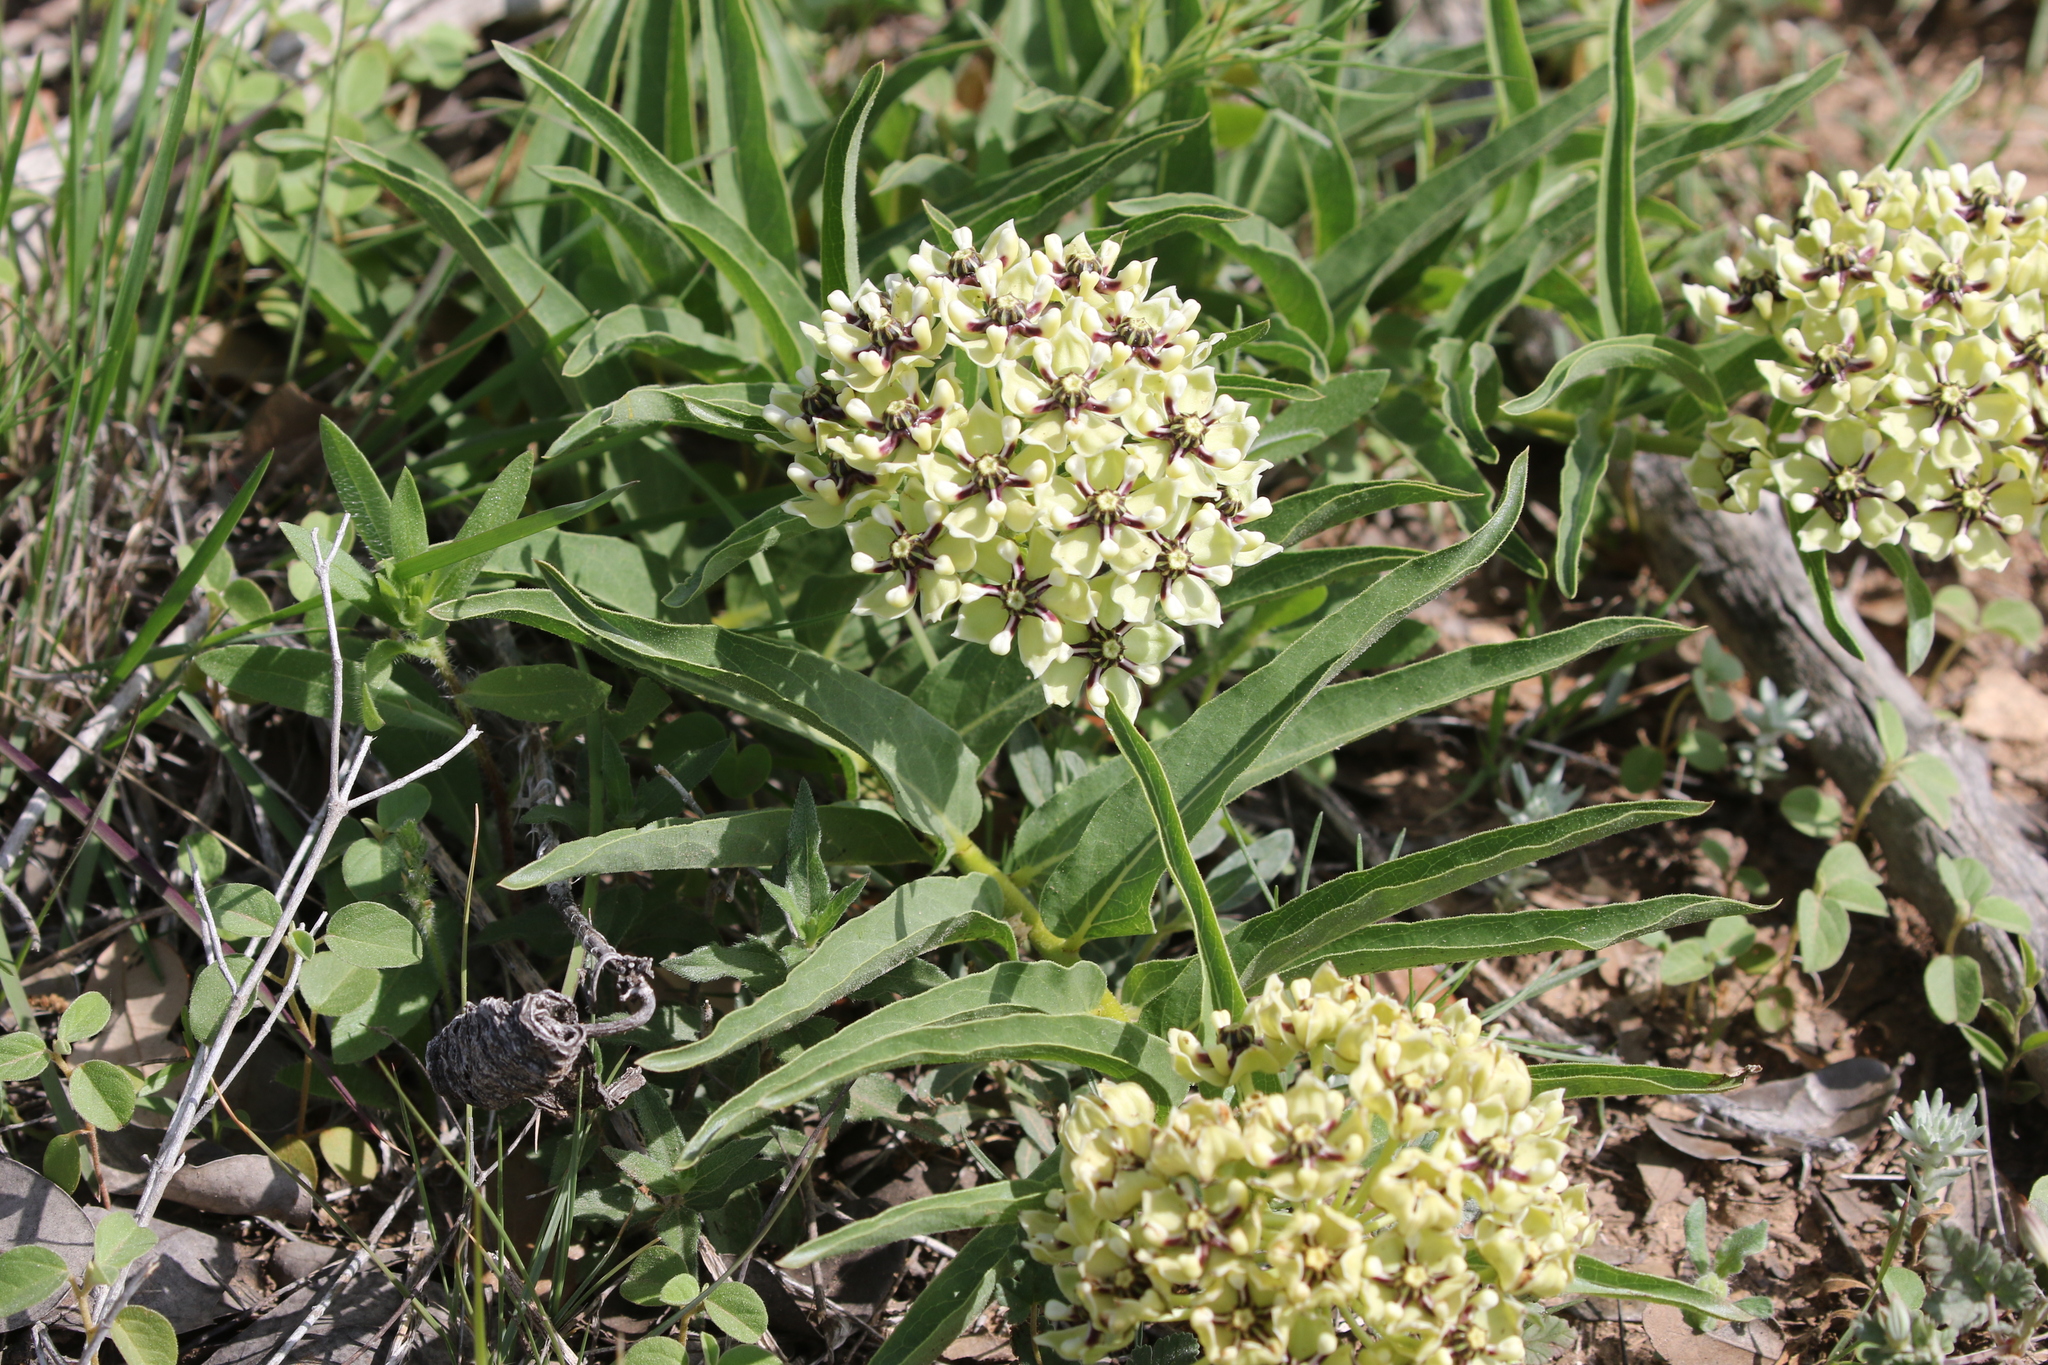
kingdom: Plantae
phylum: Tracheophyta
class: Magnoliopsida
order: Gentianales
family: Apocynaceae
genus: Asclepias
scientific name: Asclepias asperula
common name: Antelope horns
